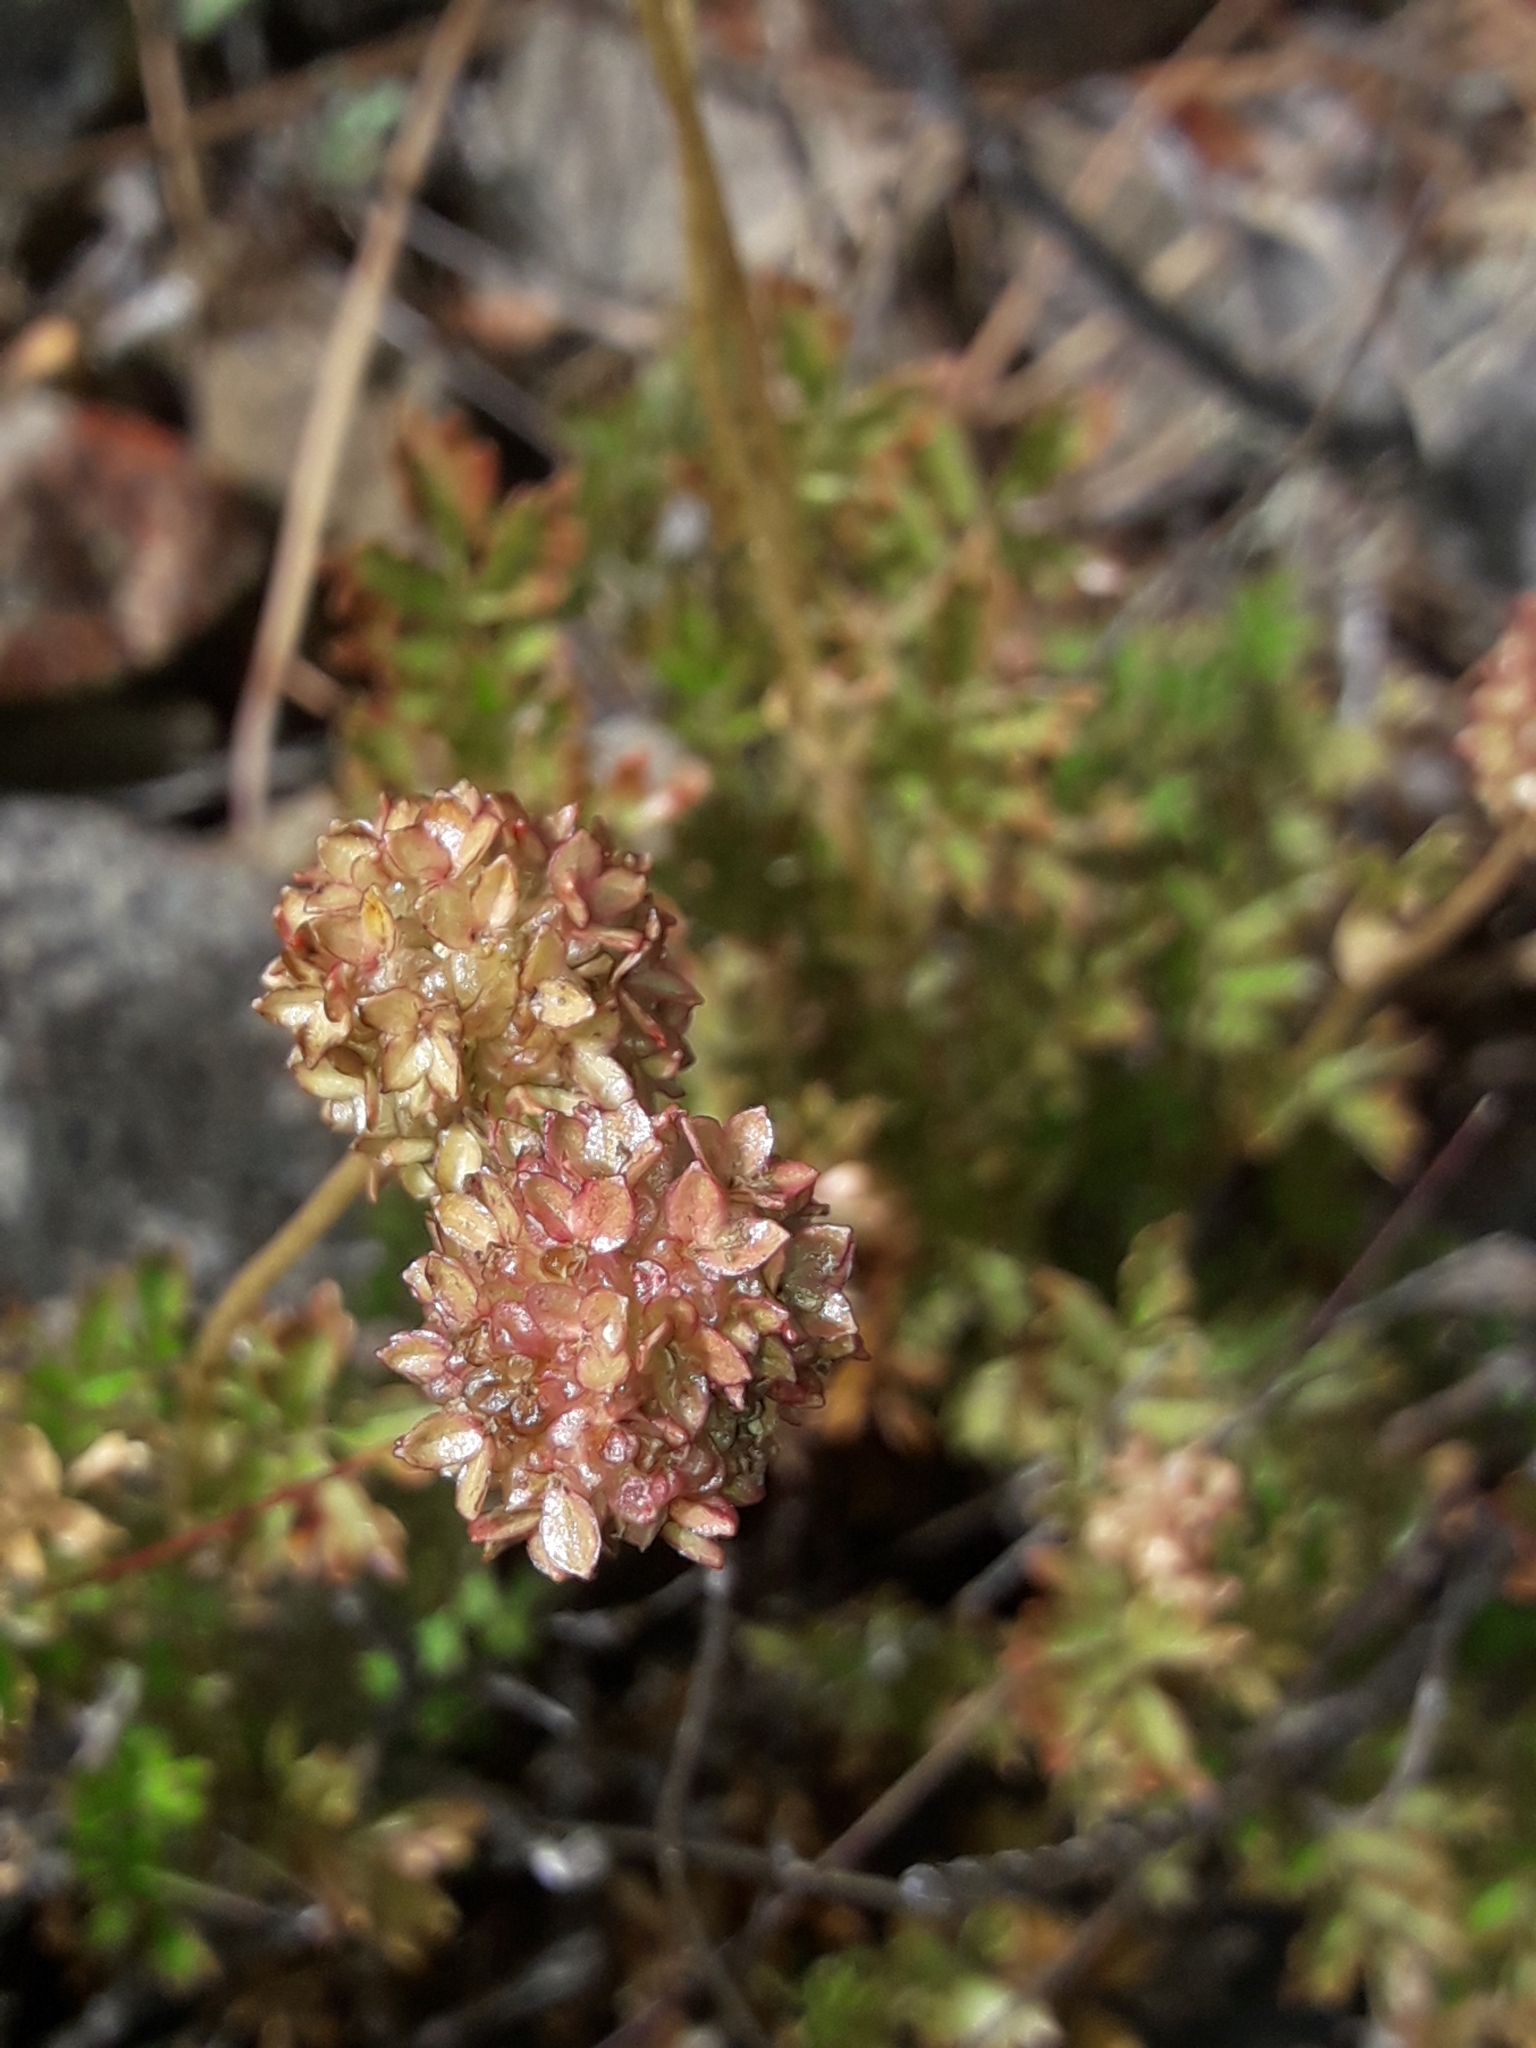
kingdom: Plantae
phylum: Tracheophyta
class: Magnoliopsida
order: Rosales
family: Rosaceae
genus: Acaena
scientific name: Acaena glabra
